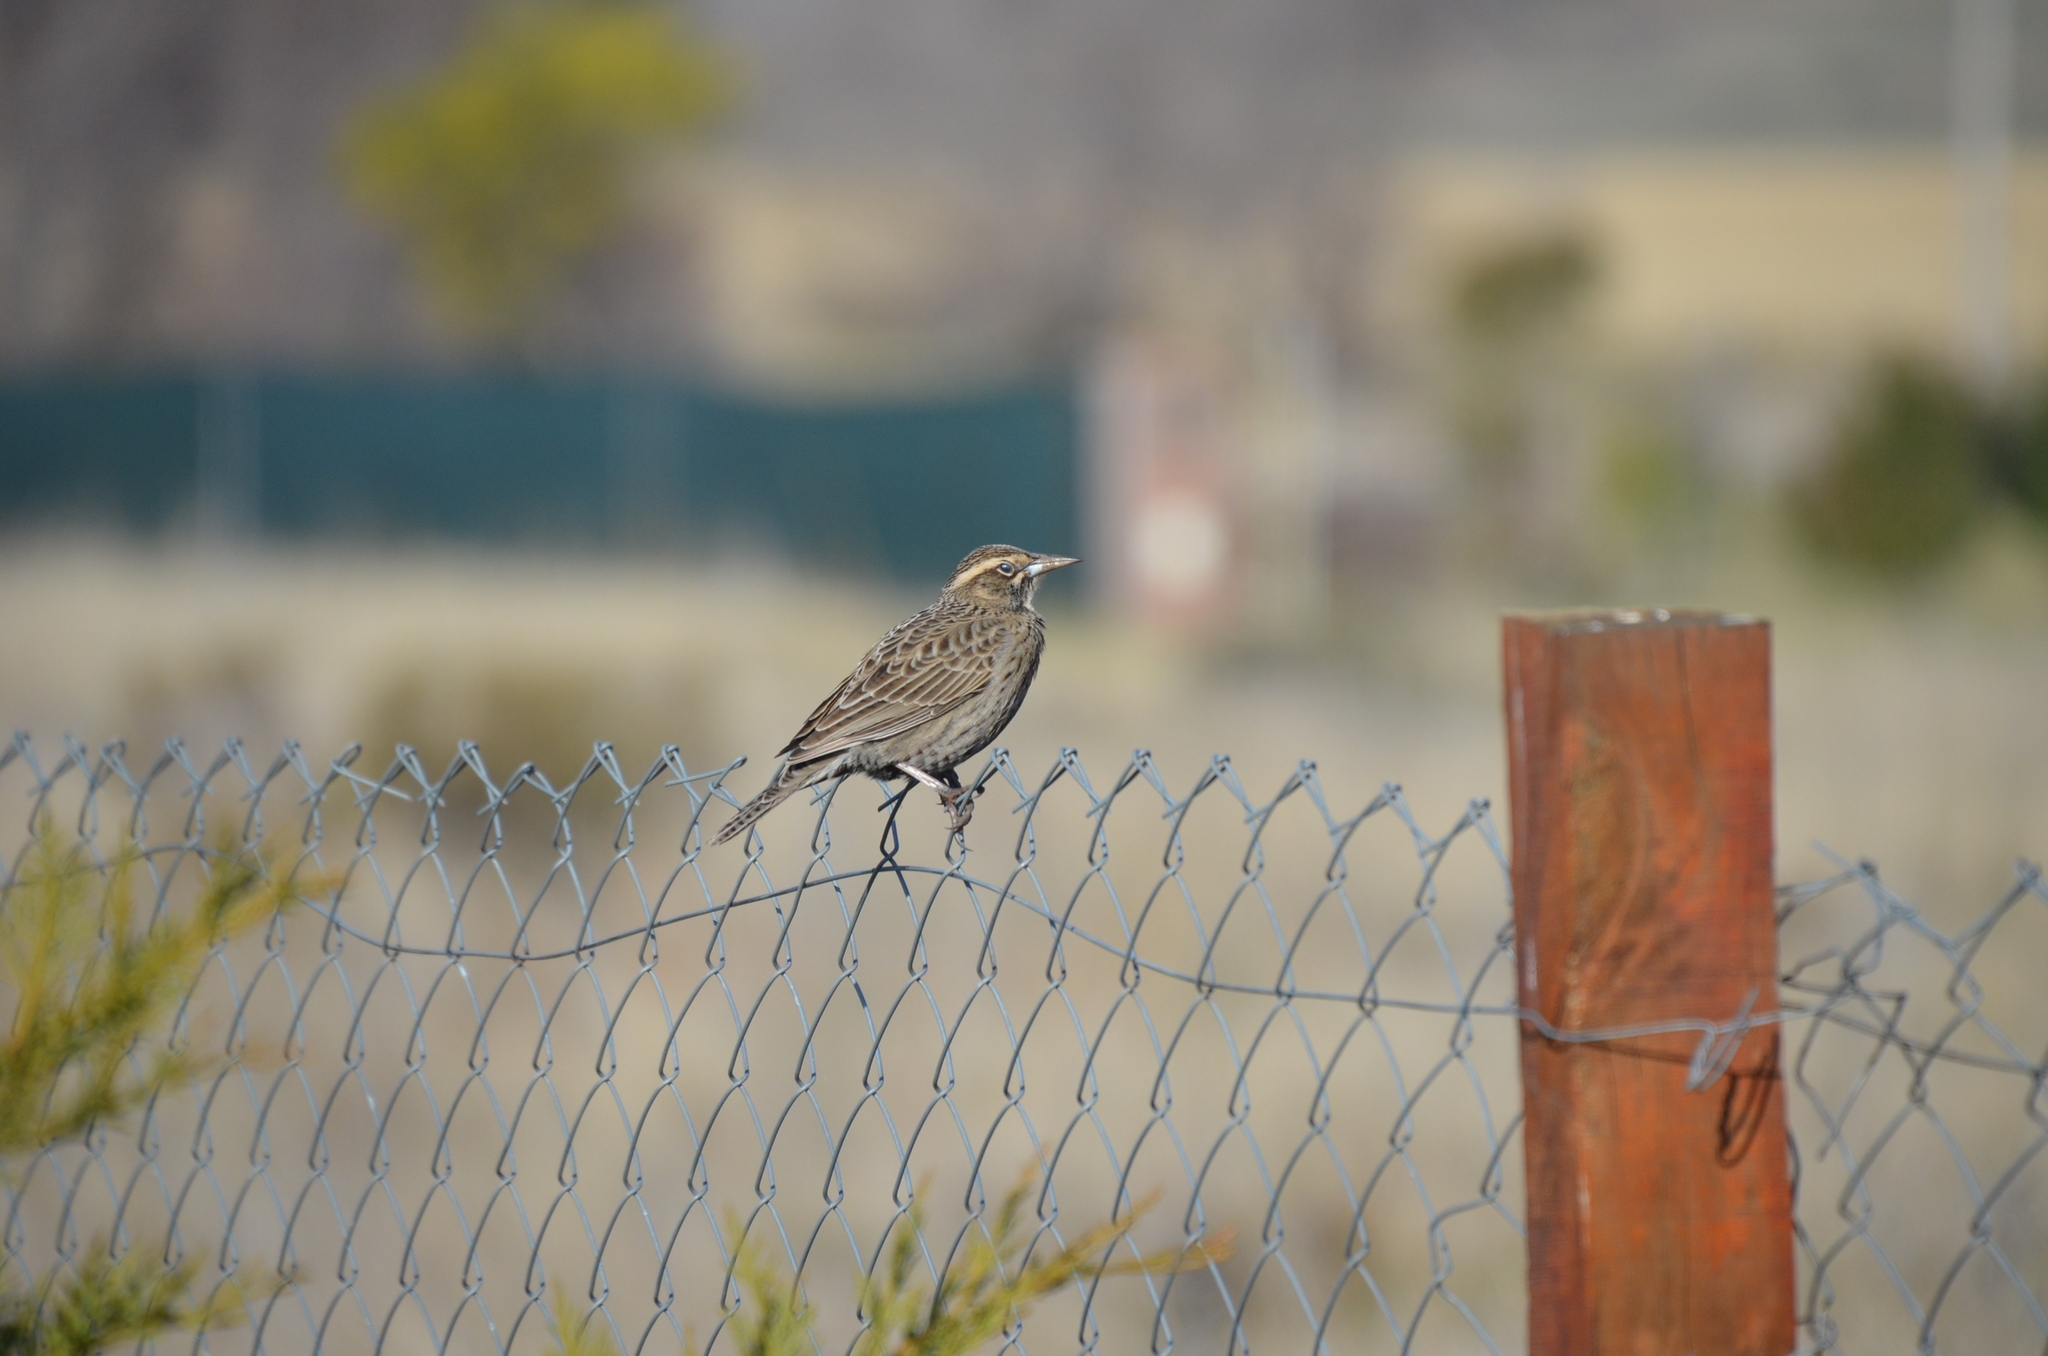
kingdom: Animalia
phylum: Chordata
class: Aves
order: Passeriformes
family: Icteridae
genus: Sturnella
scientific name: Sturnella loyca
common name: Long-tailed meadowlark
